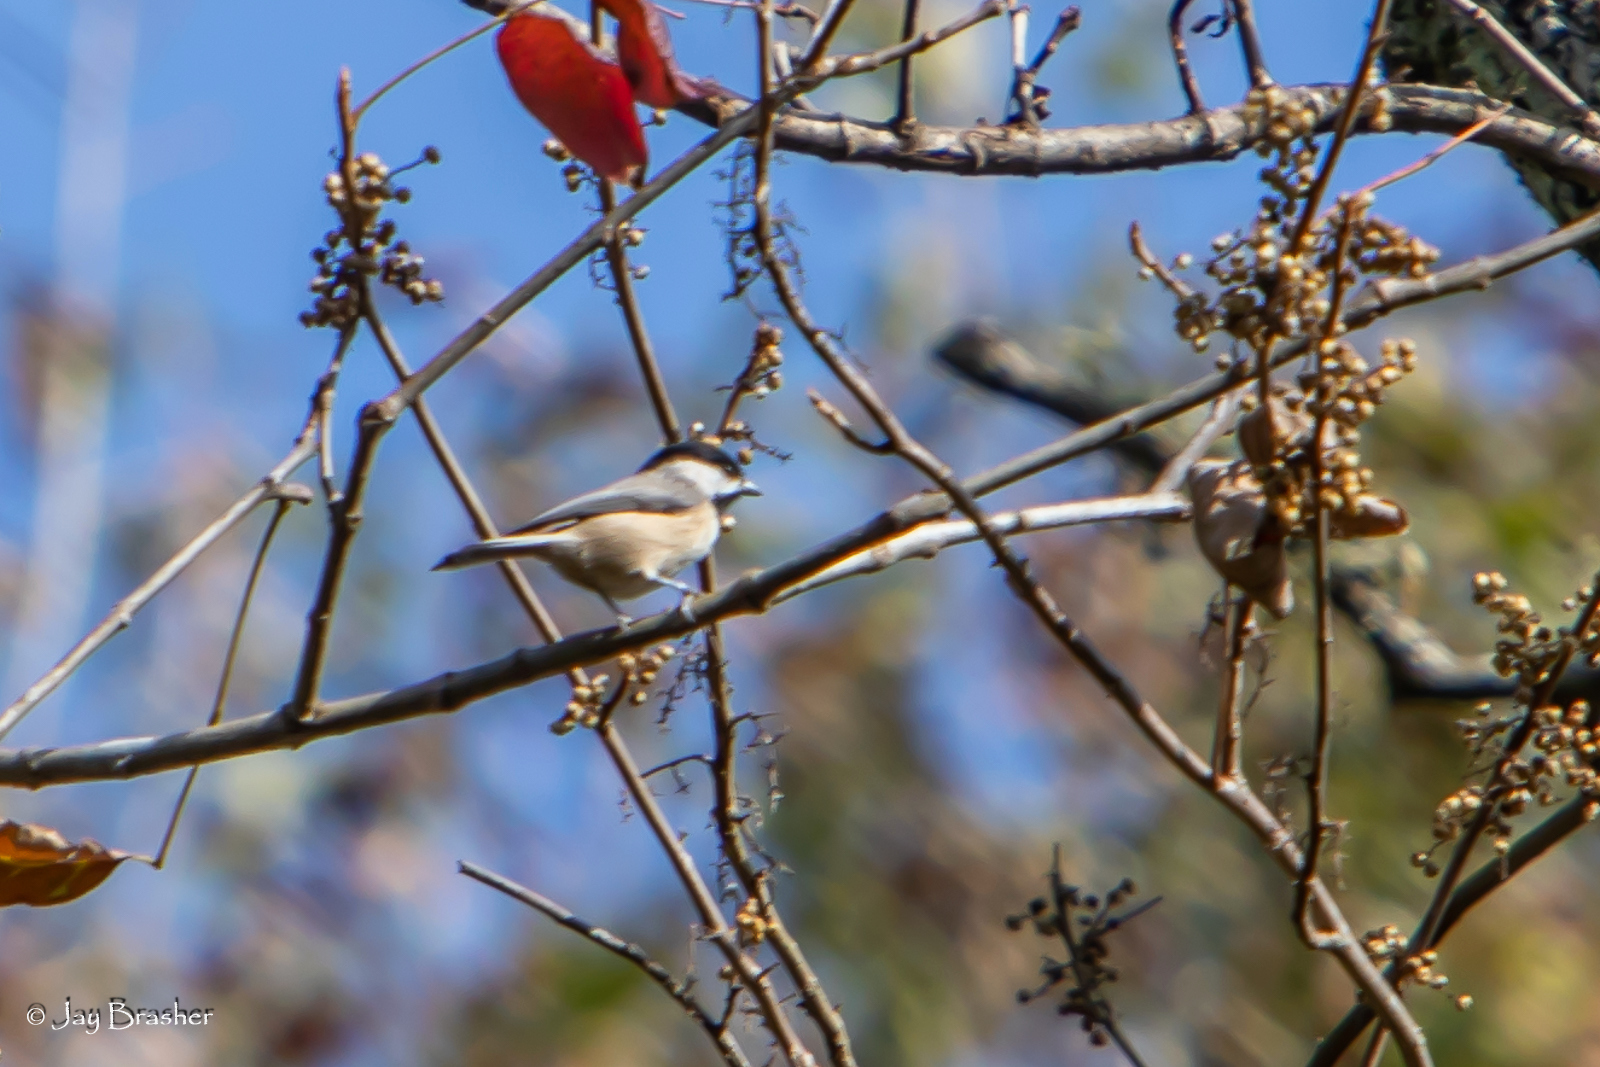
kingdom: Animalia
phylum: Chordata
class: Aves
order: Passeriformes
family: Paridae
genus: Poecile
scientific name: Poecile carolinensis
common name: Carolina chickadee
